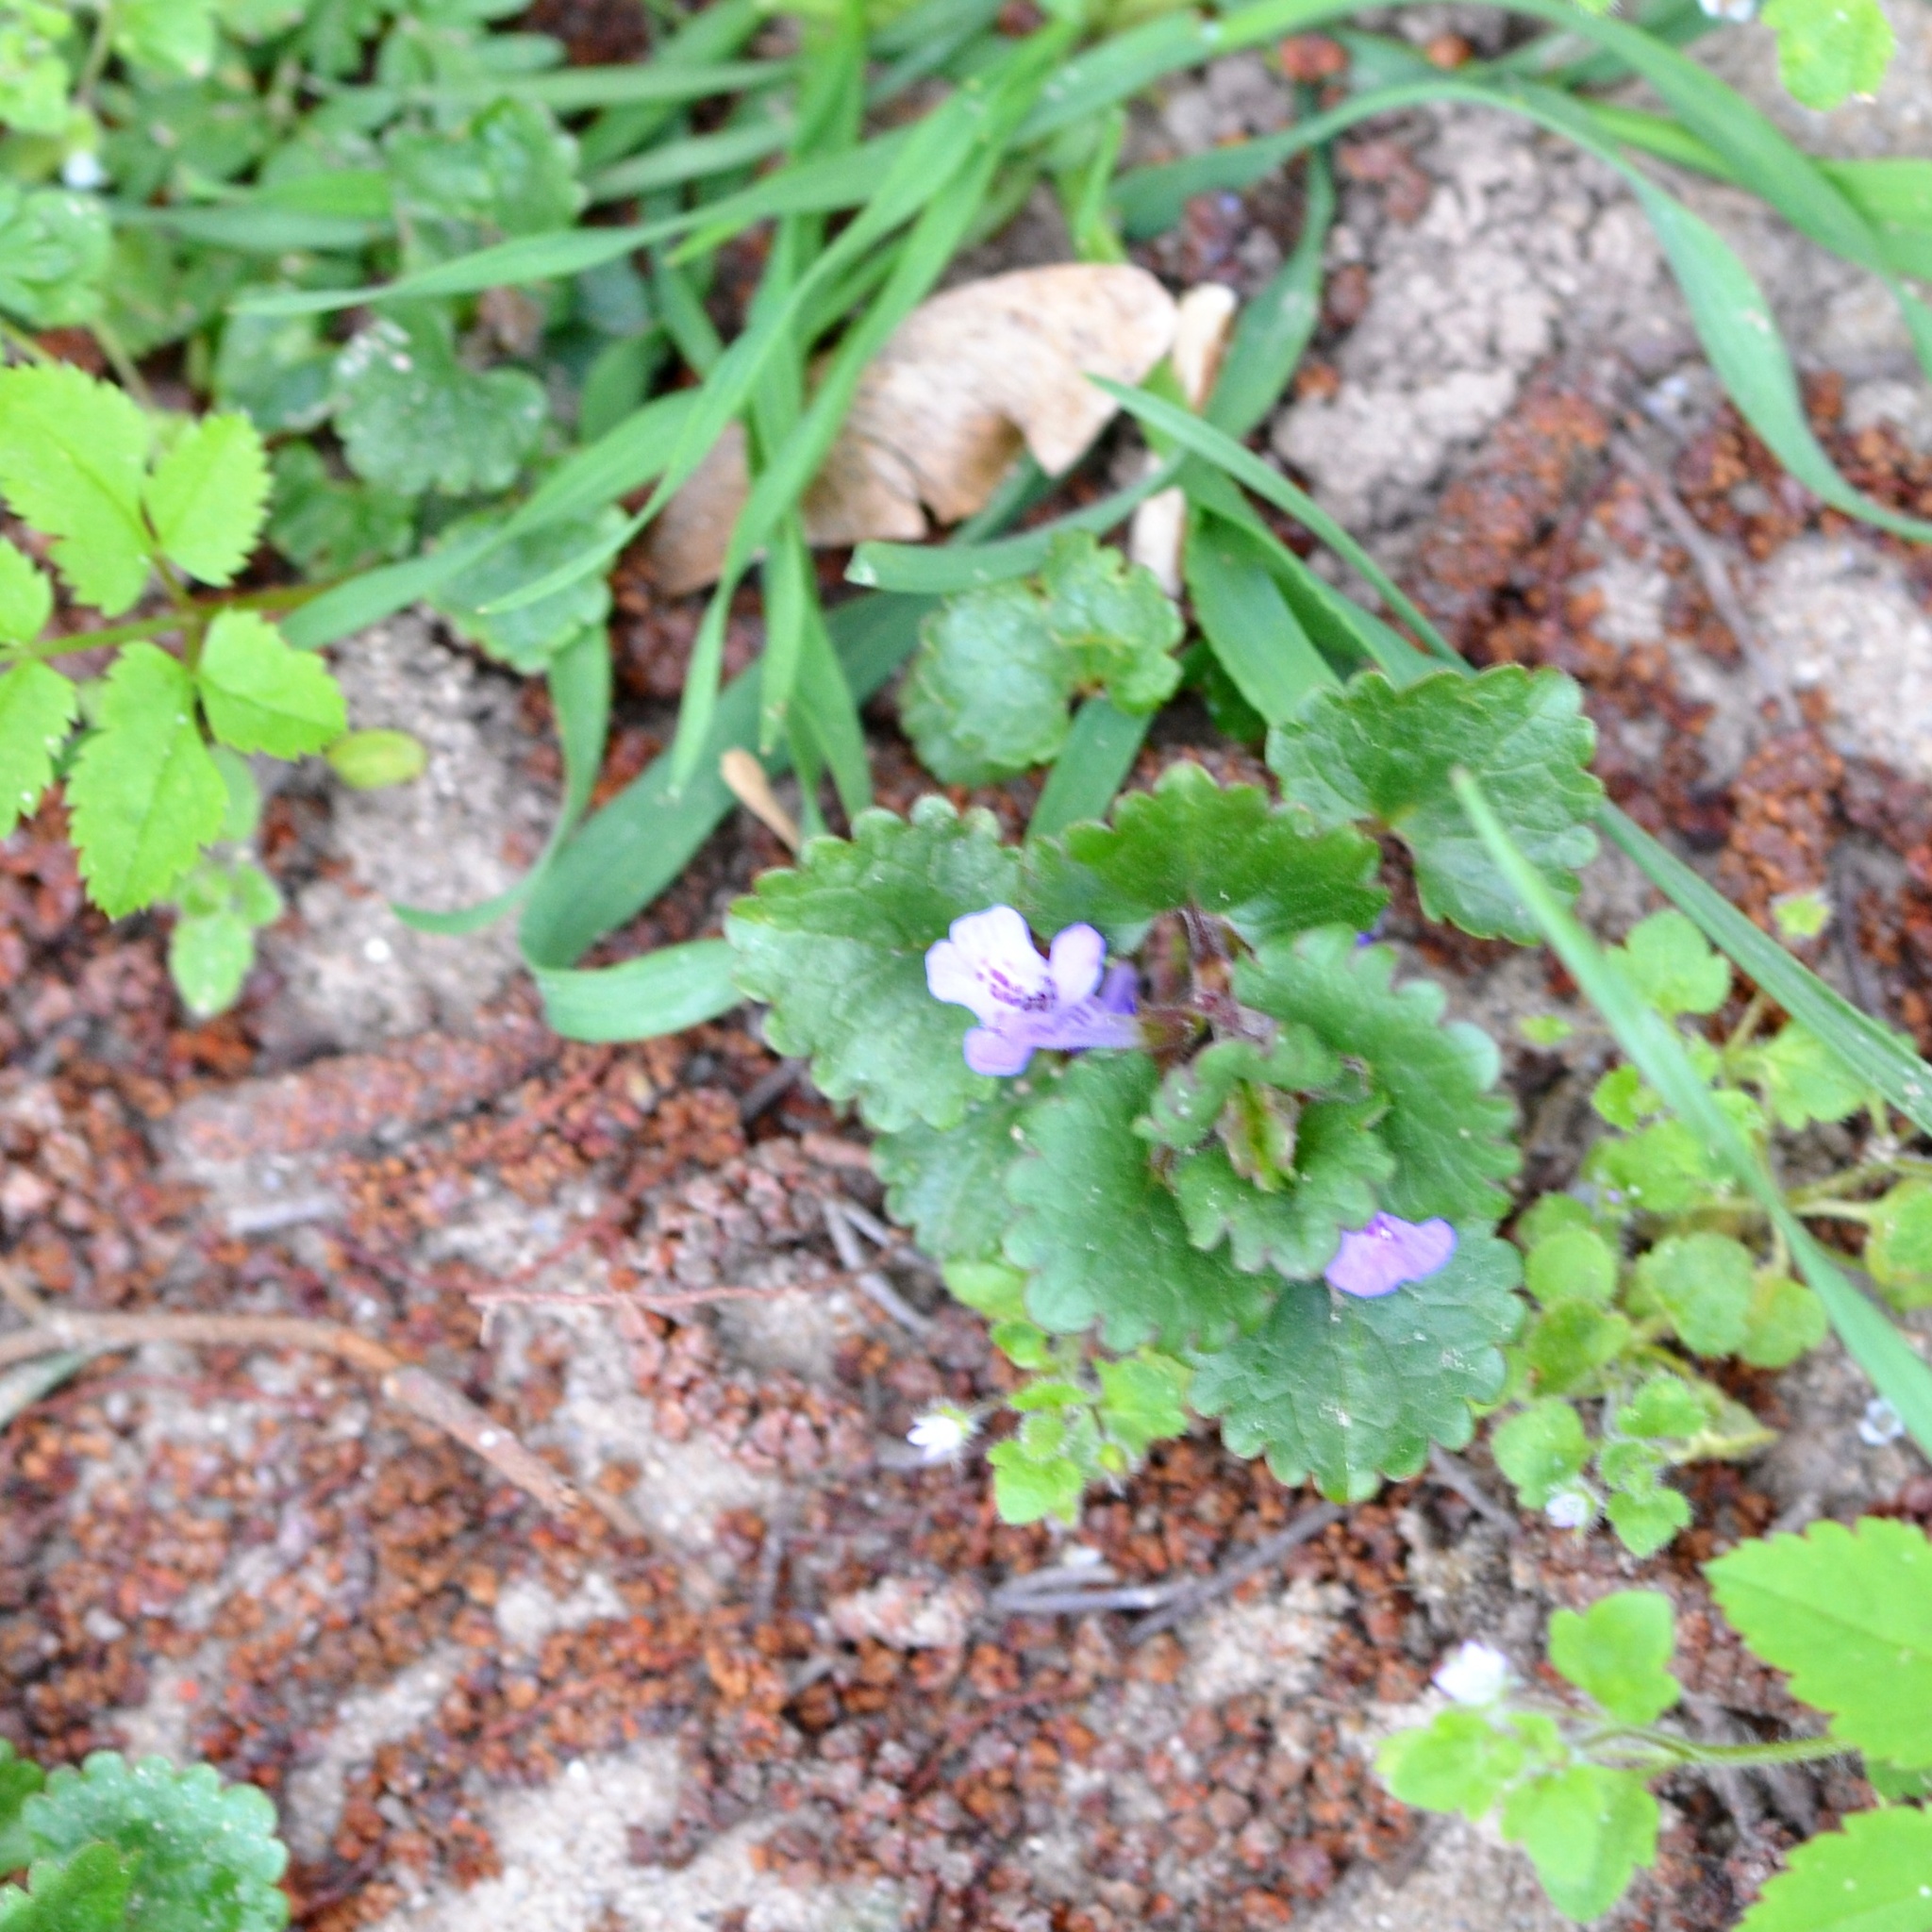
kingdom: Plantae
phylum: Tracheophyta
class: Magnoliopsida
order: Lamiales
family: Lamiaceae
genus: Glechoma
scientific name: Glechoma hederacea
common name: Ground ivy
